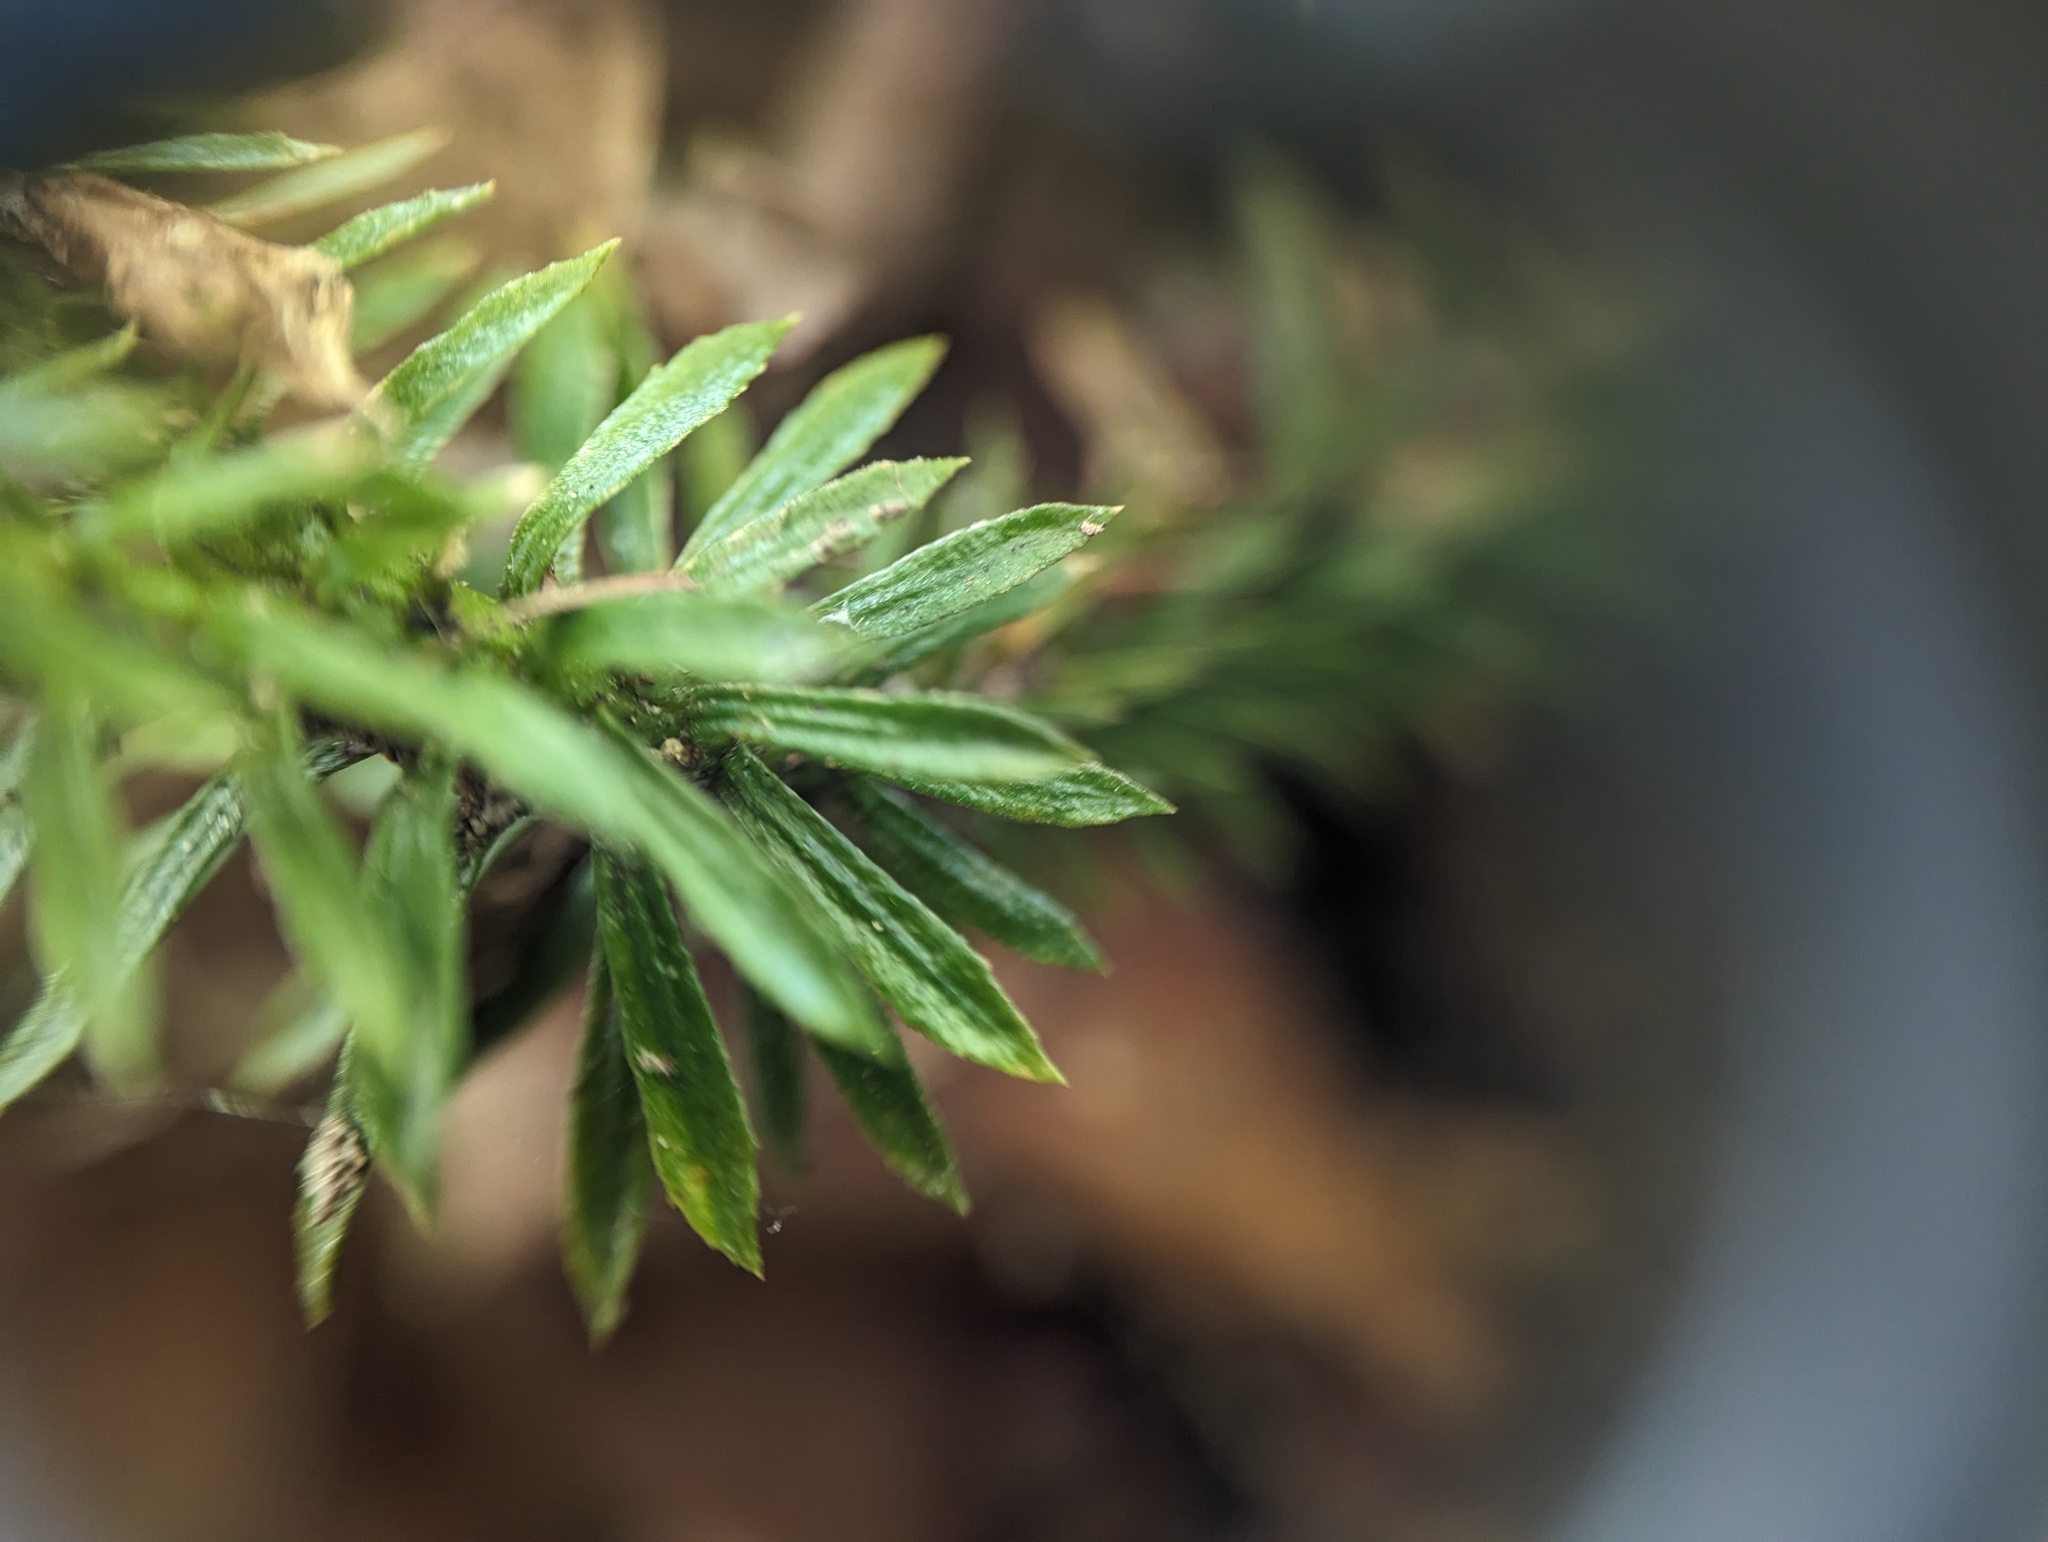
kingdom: Plantae
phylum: Tracheophyta
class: Lycopodiopsida
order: Lycopodiales
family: Lycopodiaceae
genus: Huperzia
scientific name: Huperzia lucidula
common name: Shining clubmoss
